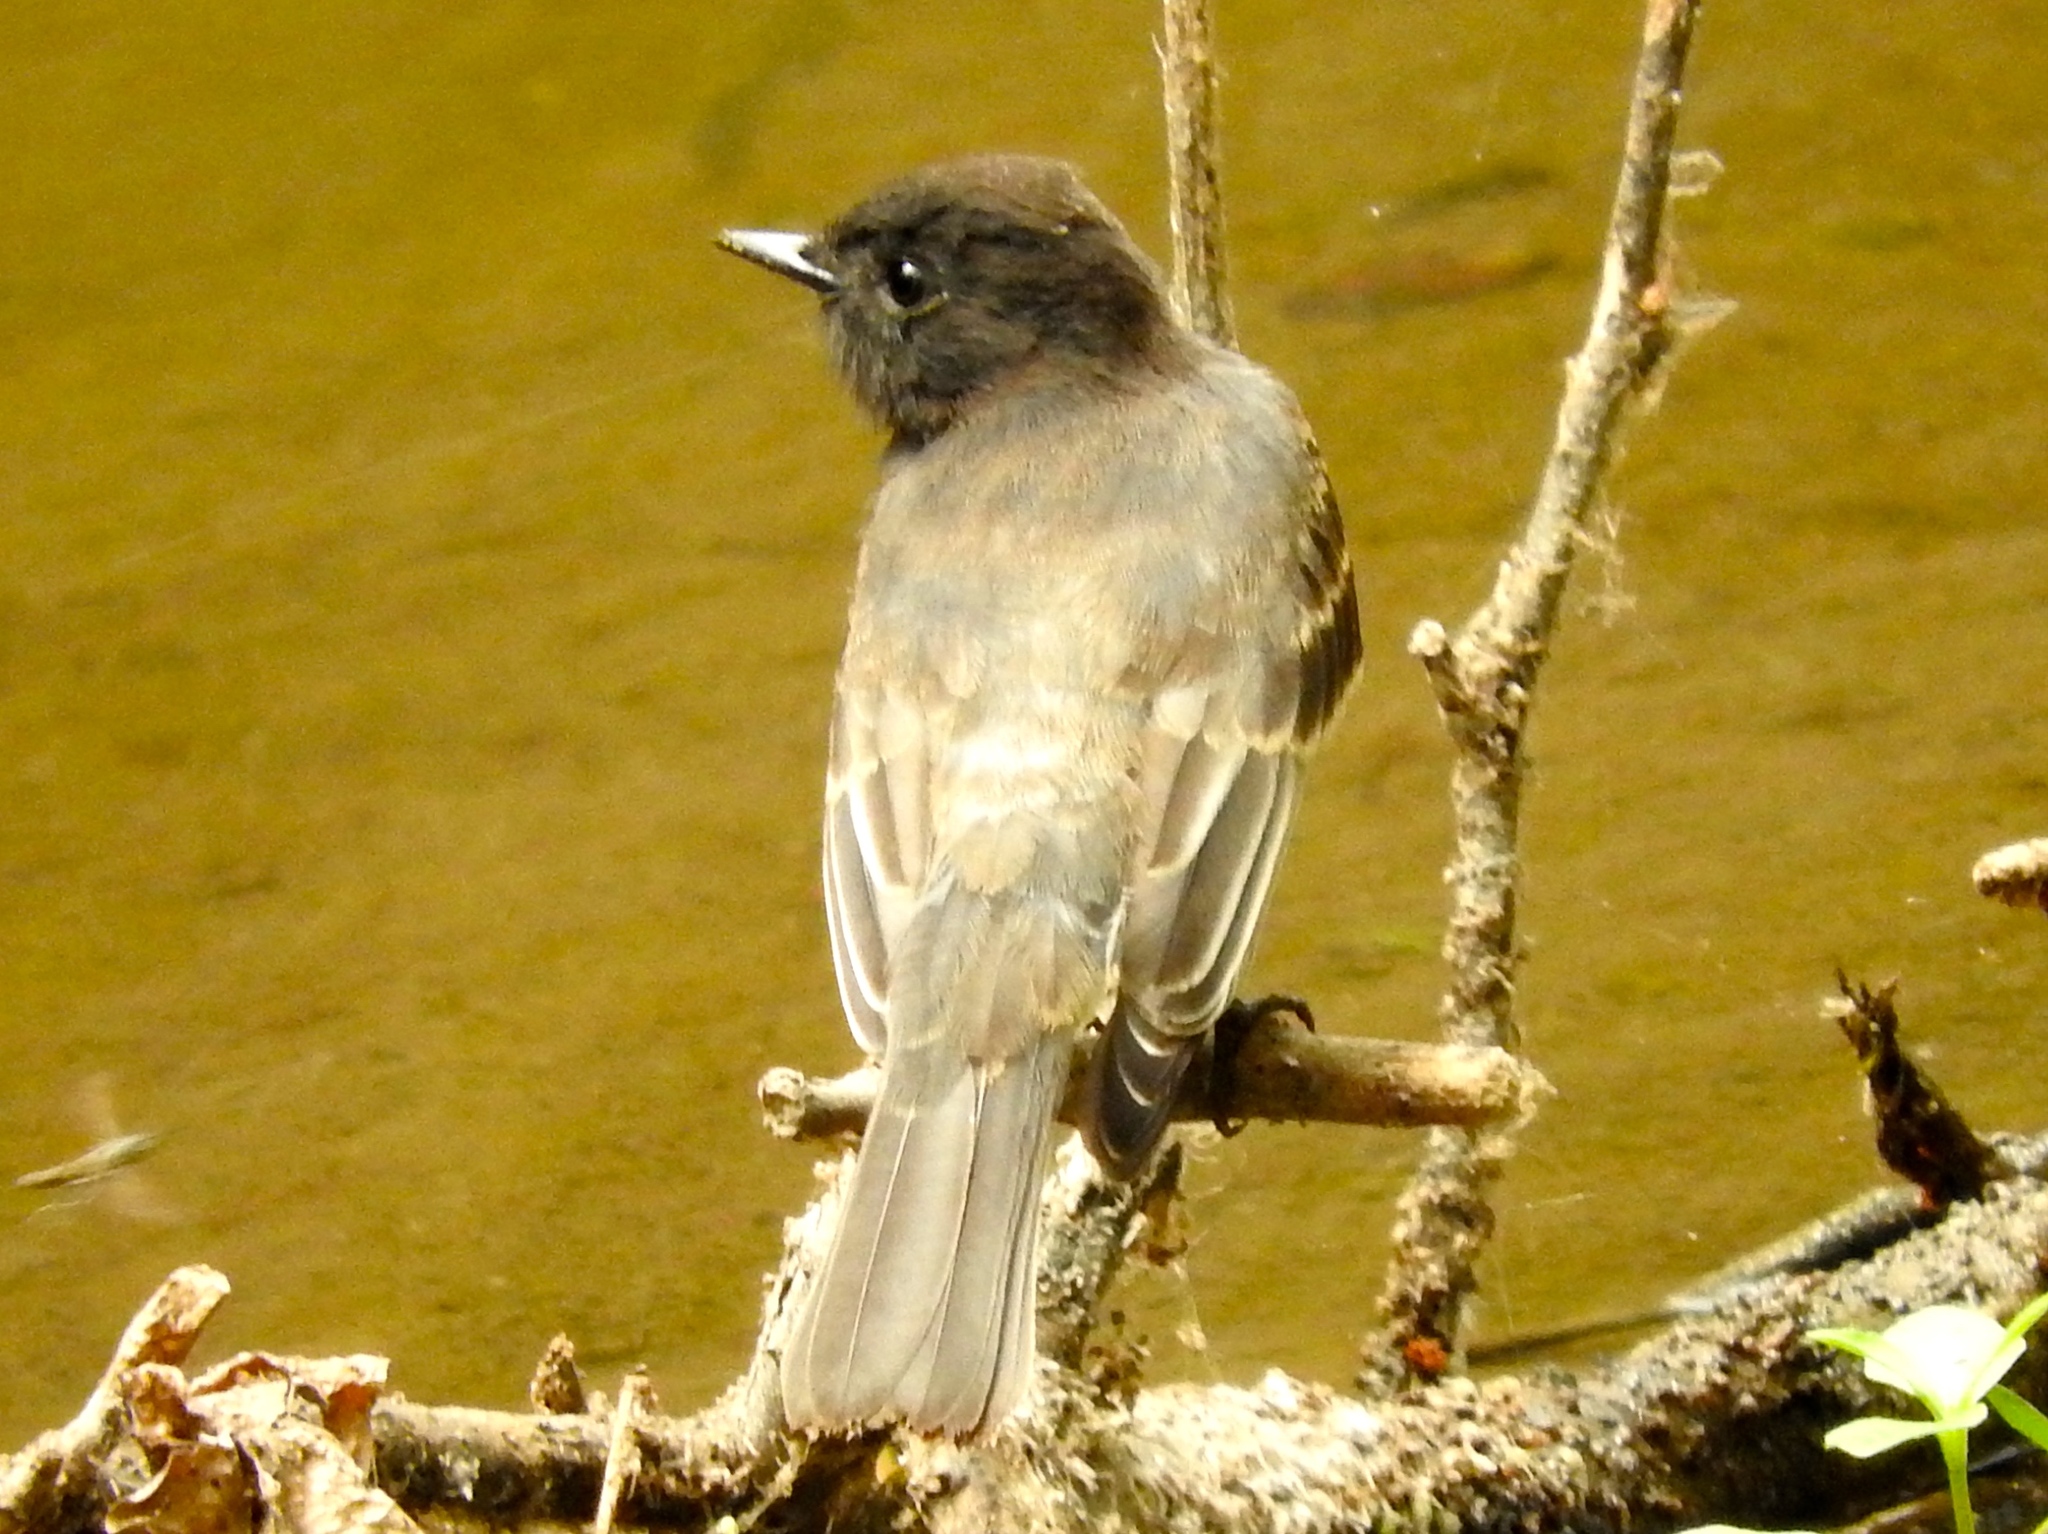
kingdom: Animalia
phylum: Chordata
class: Aves
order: Passeriformes
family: Tyrannidae
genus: Sayornis
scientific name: Sayornis nigricans
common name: Black phoebe
